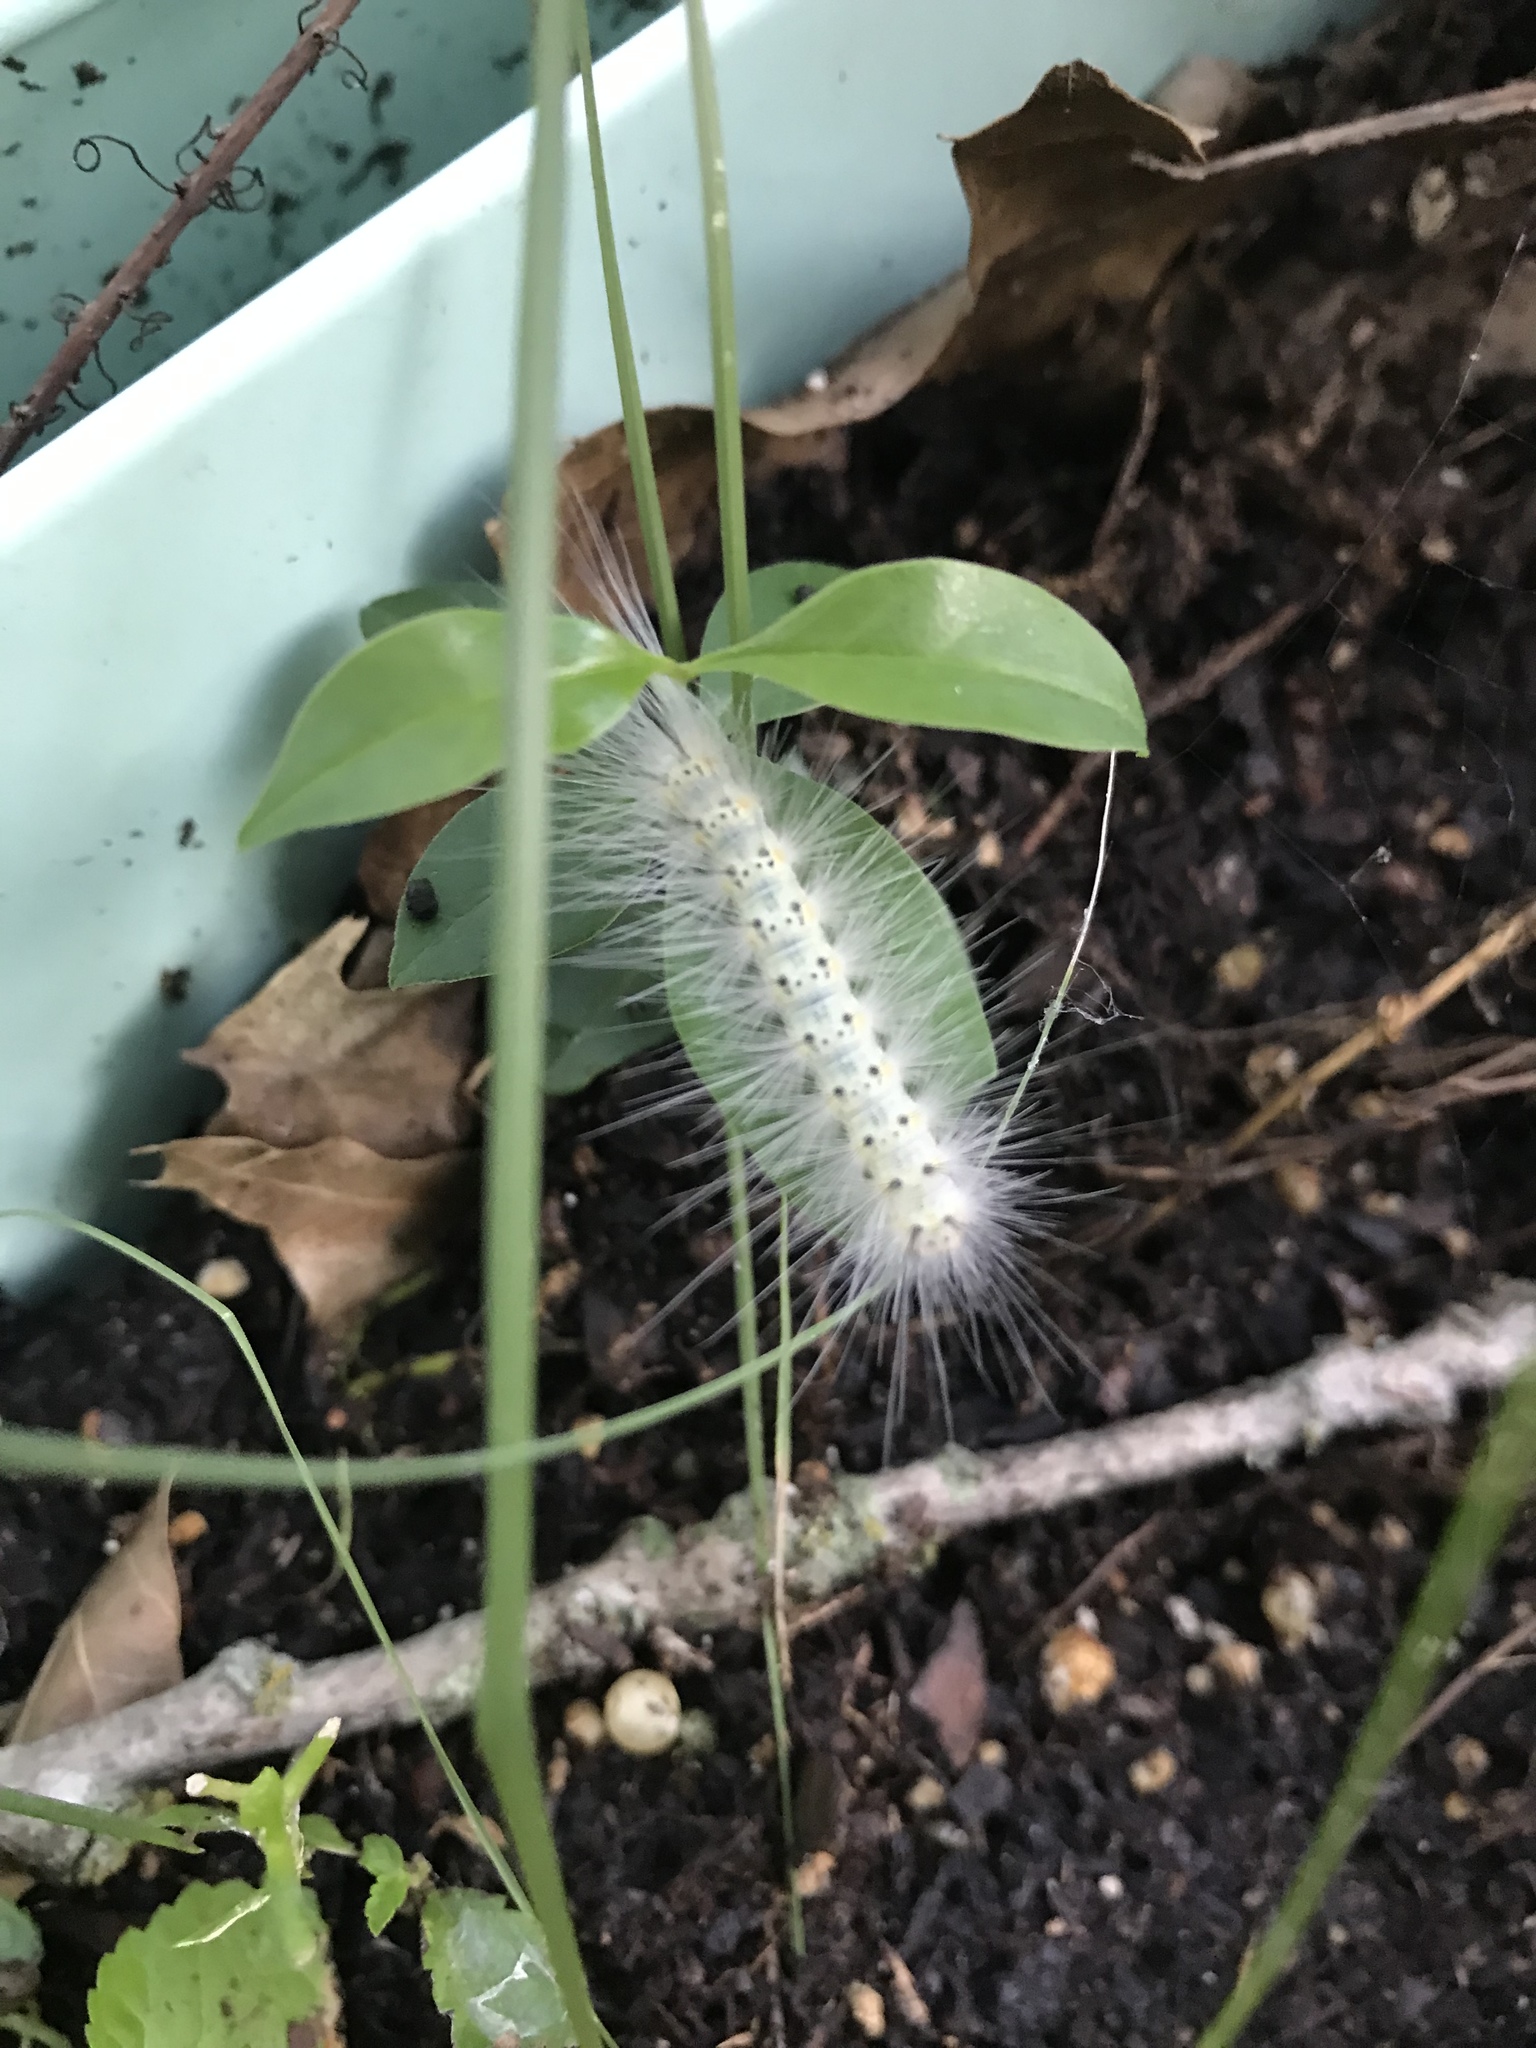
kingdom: Animalia
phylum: Arthropoda
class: Insecta
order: Lepidoptera
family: Erebidae
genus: Hyphantria
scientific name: Hyphantria cunea
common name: American white moth
